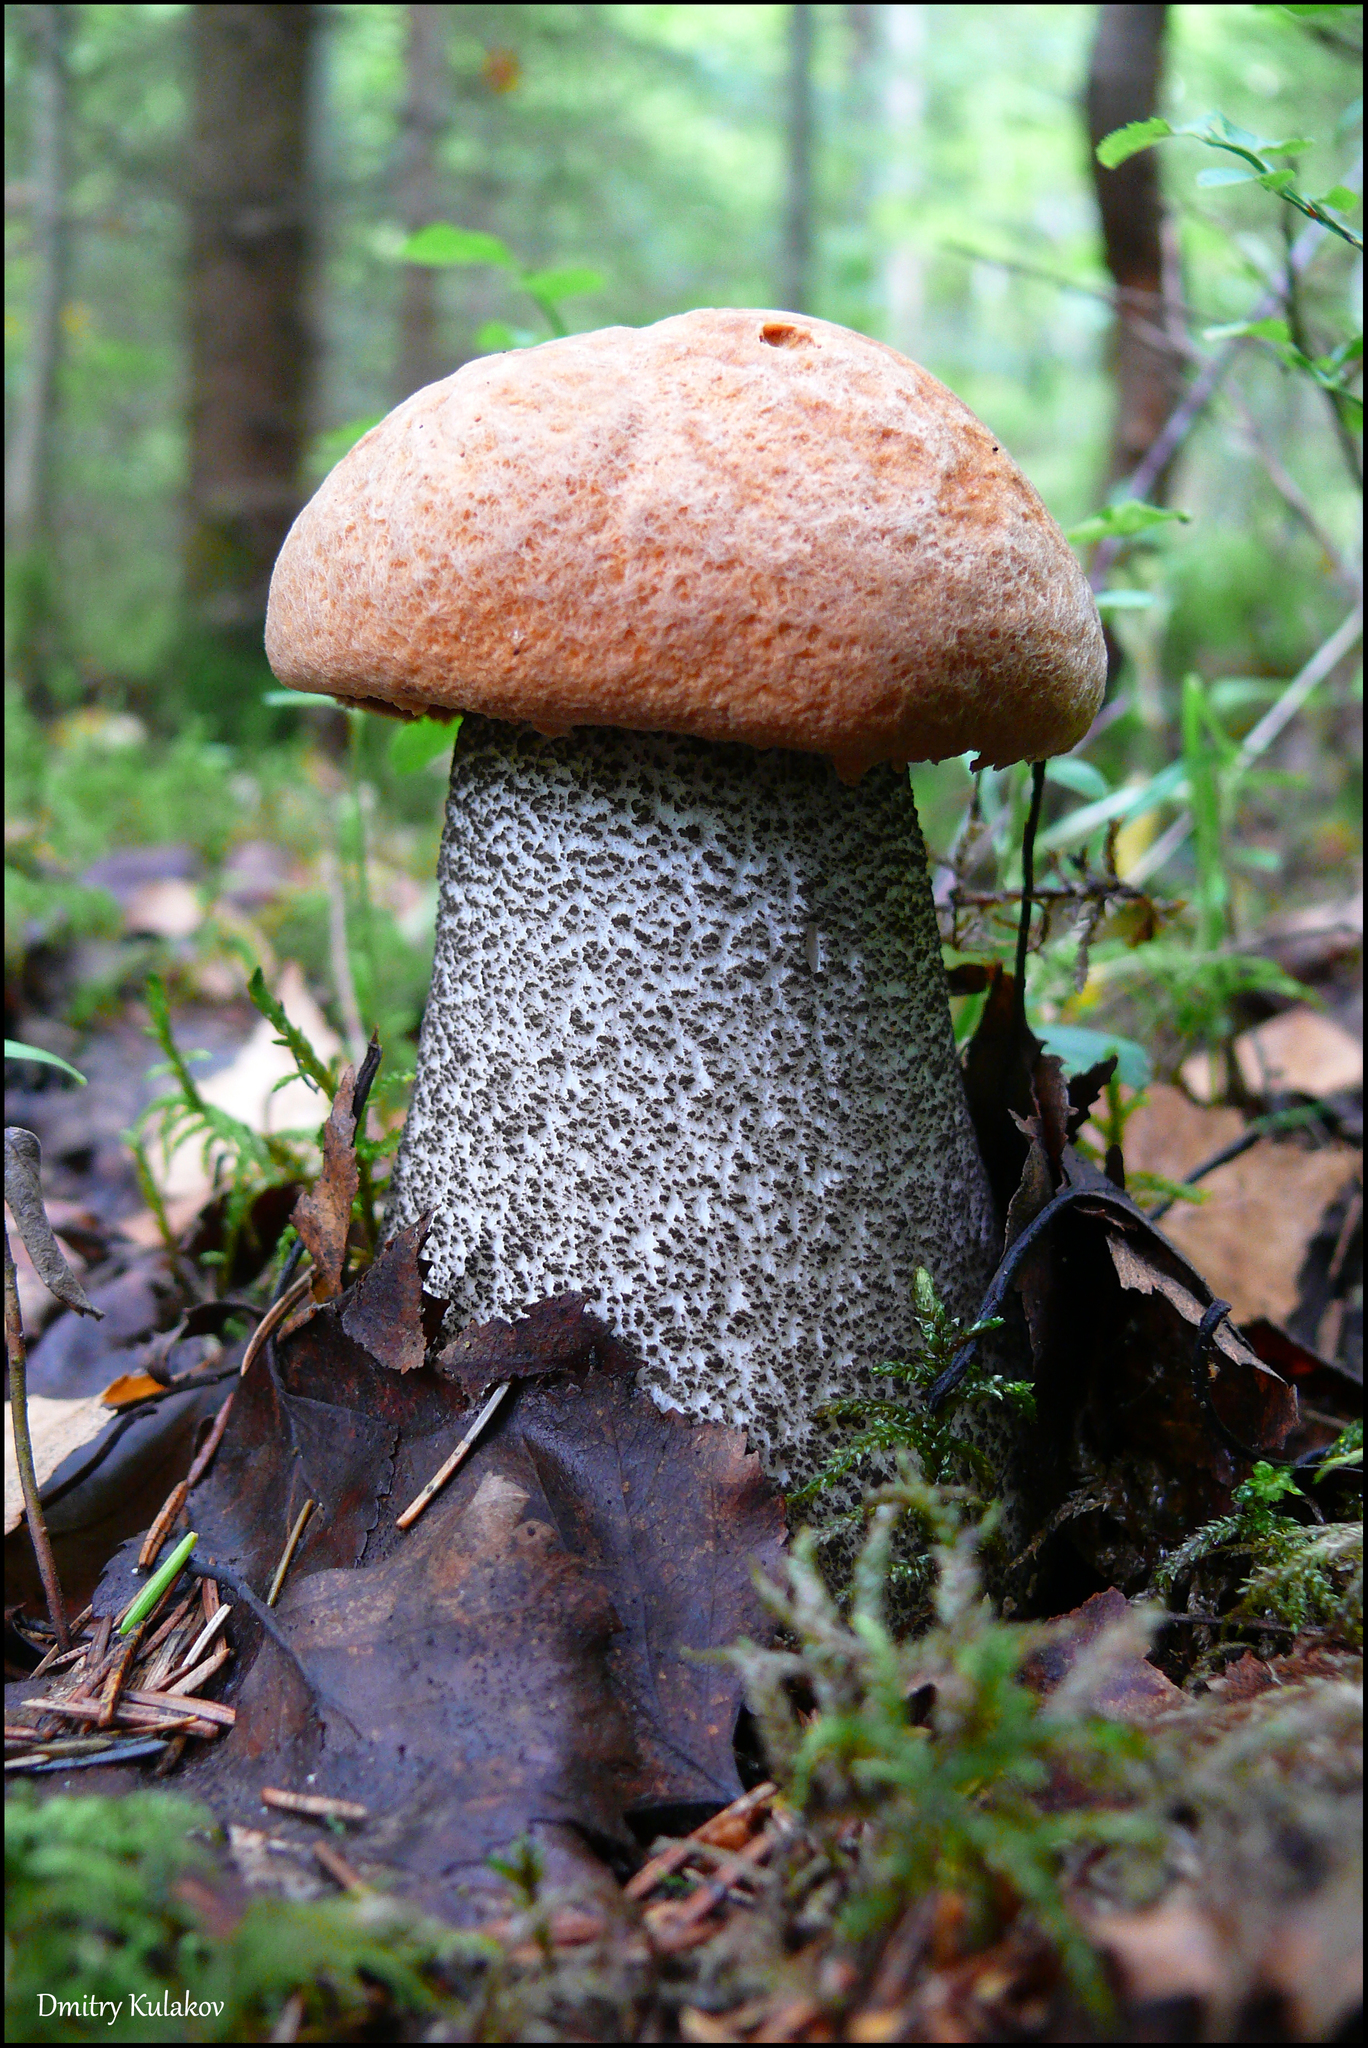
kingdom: Fungi
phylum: Basidiomycota
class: Agaricomycetes
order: Boletales
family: Boletaceae
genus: Leccinum
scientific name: Leccinum versipelle
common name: Orange birch bolete
